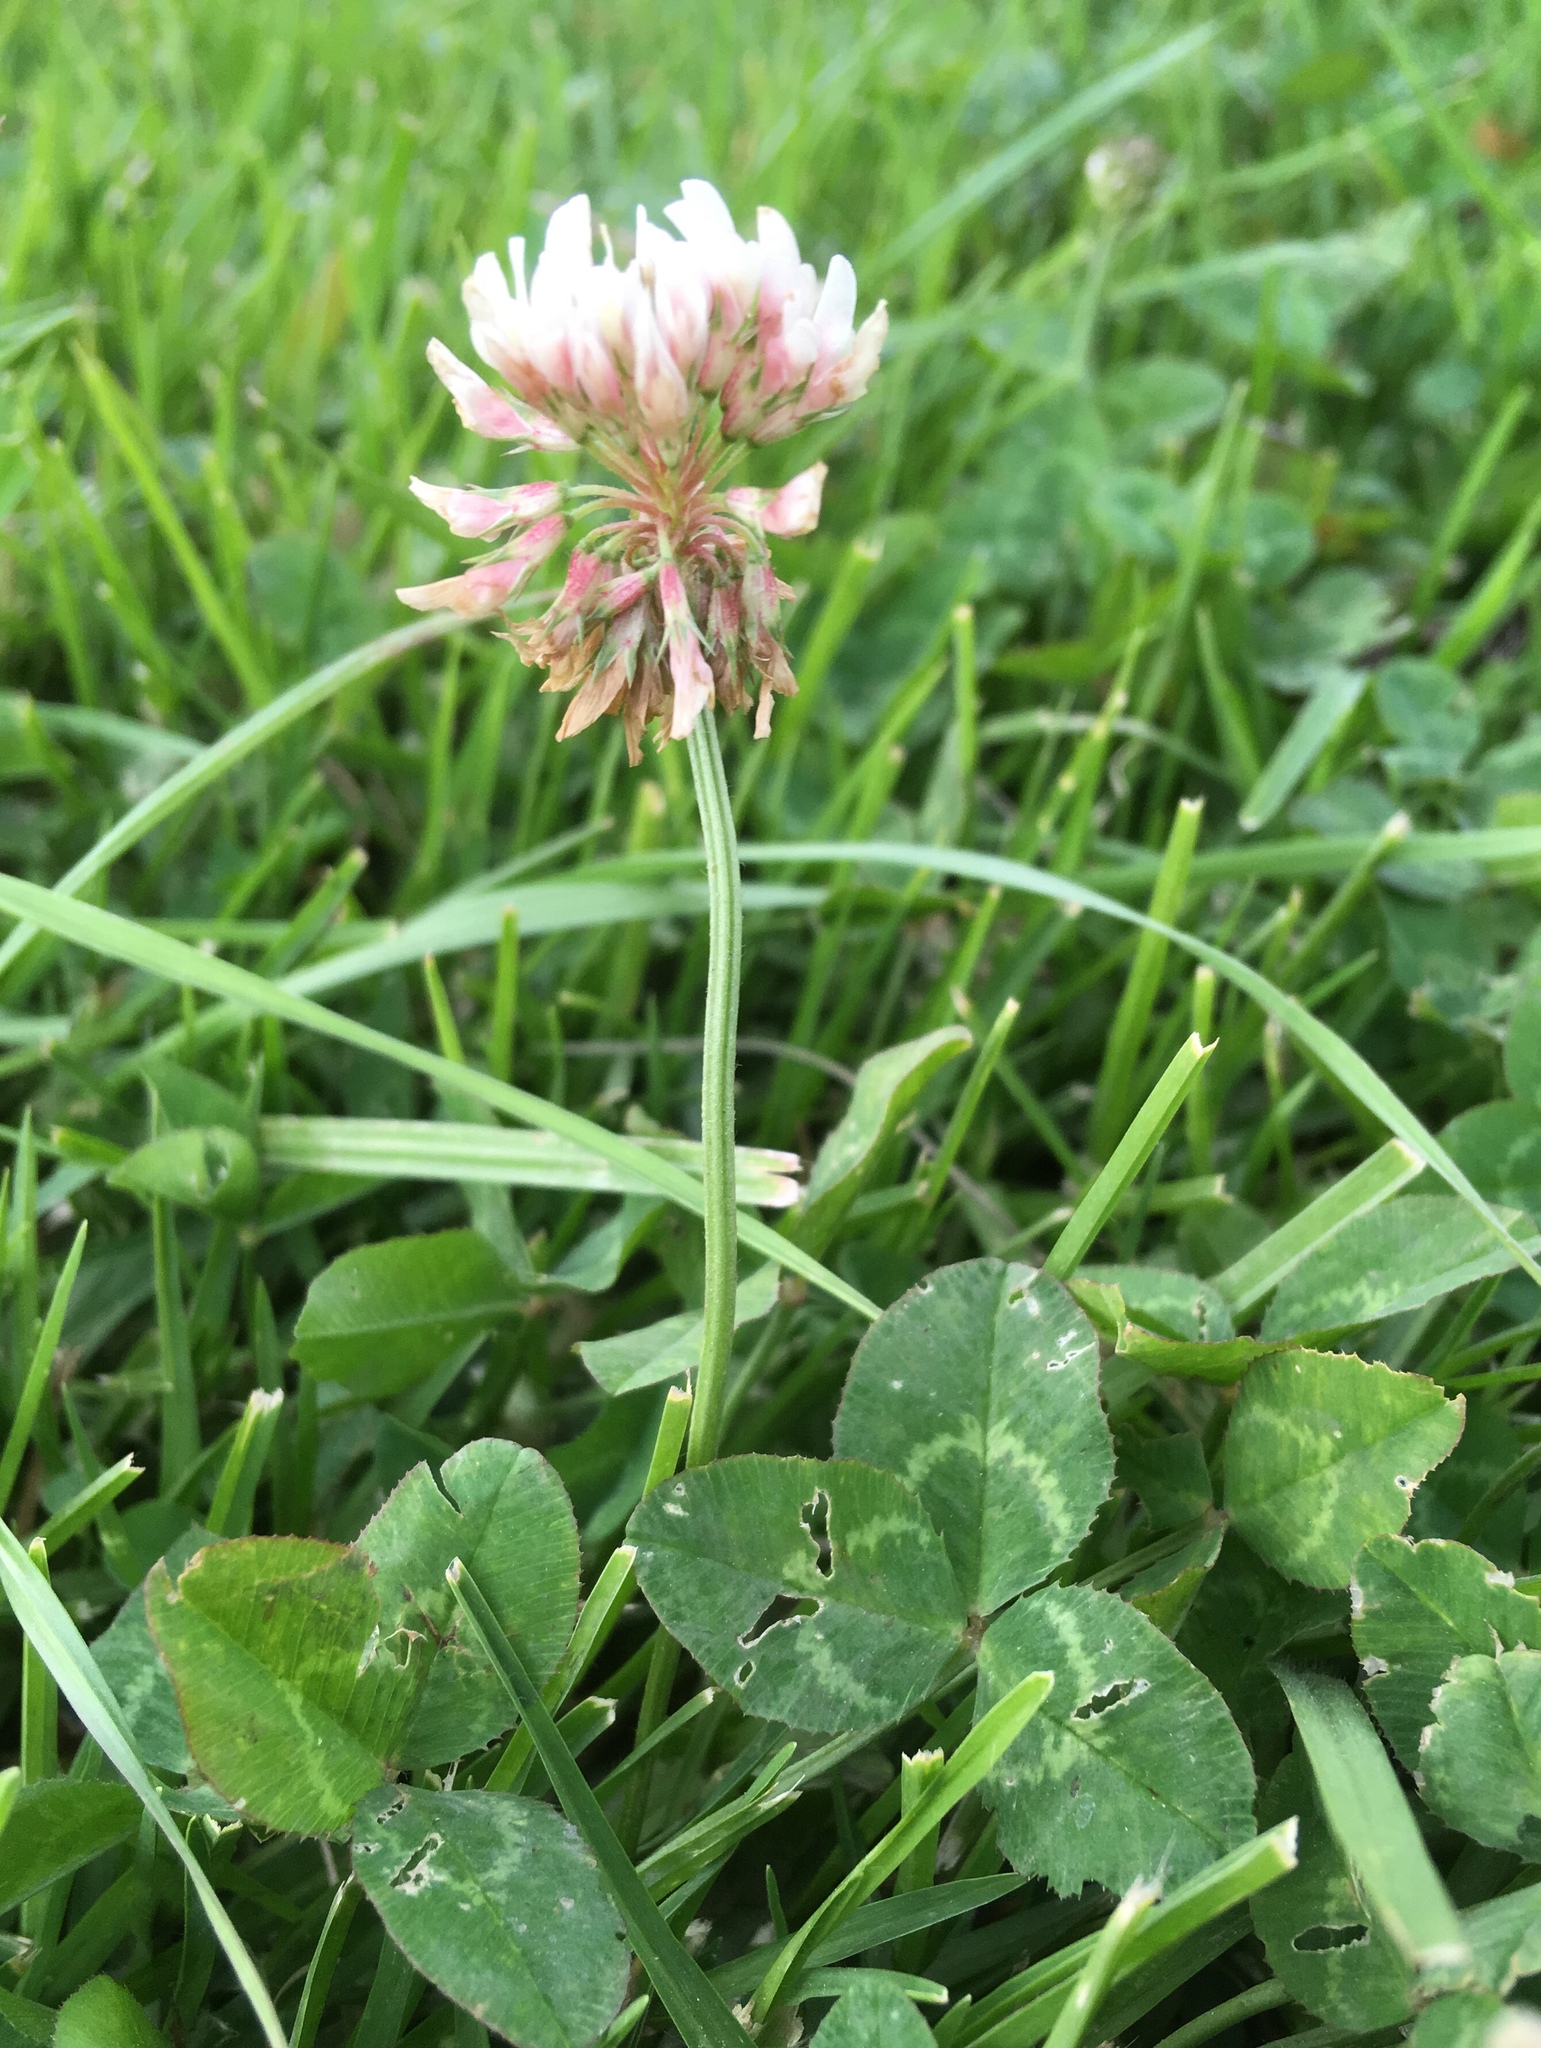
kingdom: Plantae
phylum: Tracheophyta
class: Magnoliopsida
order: Fabales
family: Fabaceae
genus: Trifolium
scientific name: Trifolium repens
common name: White clover
